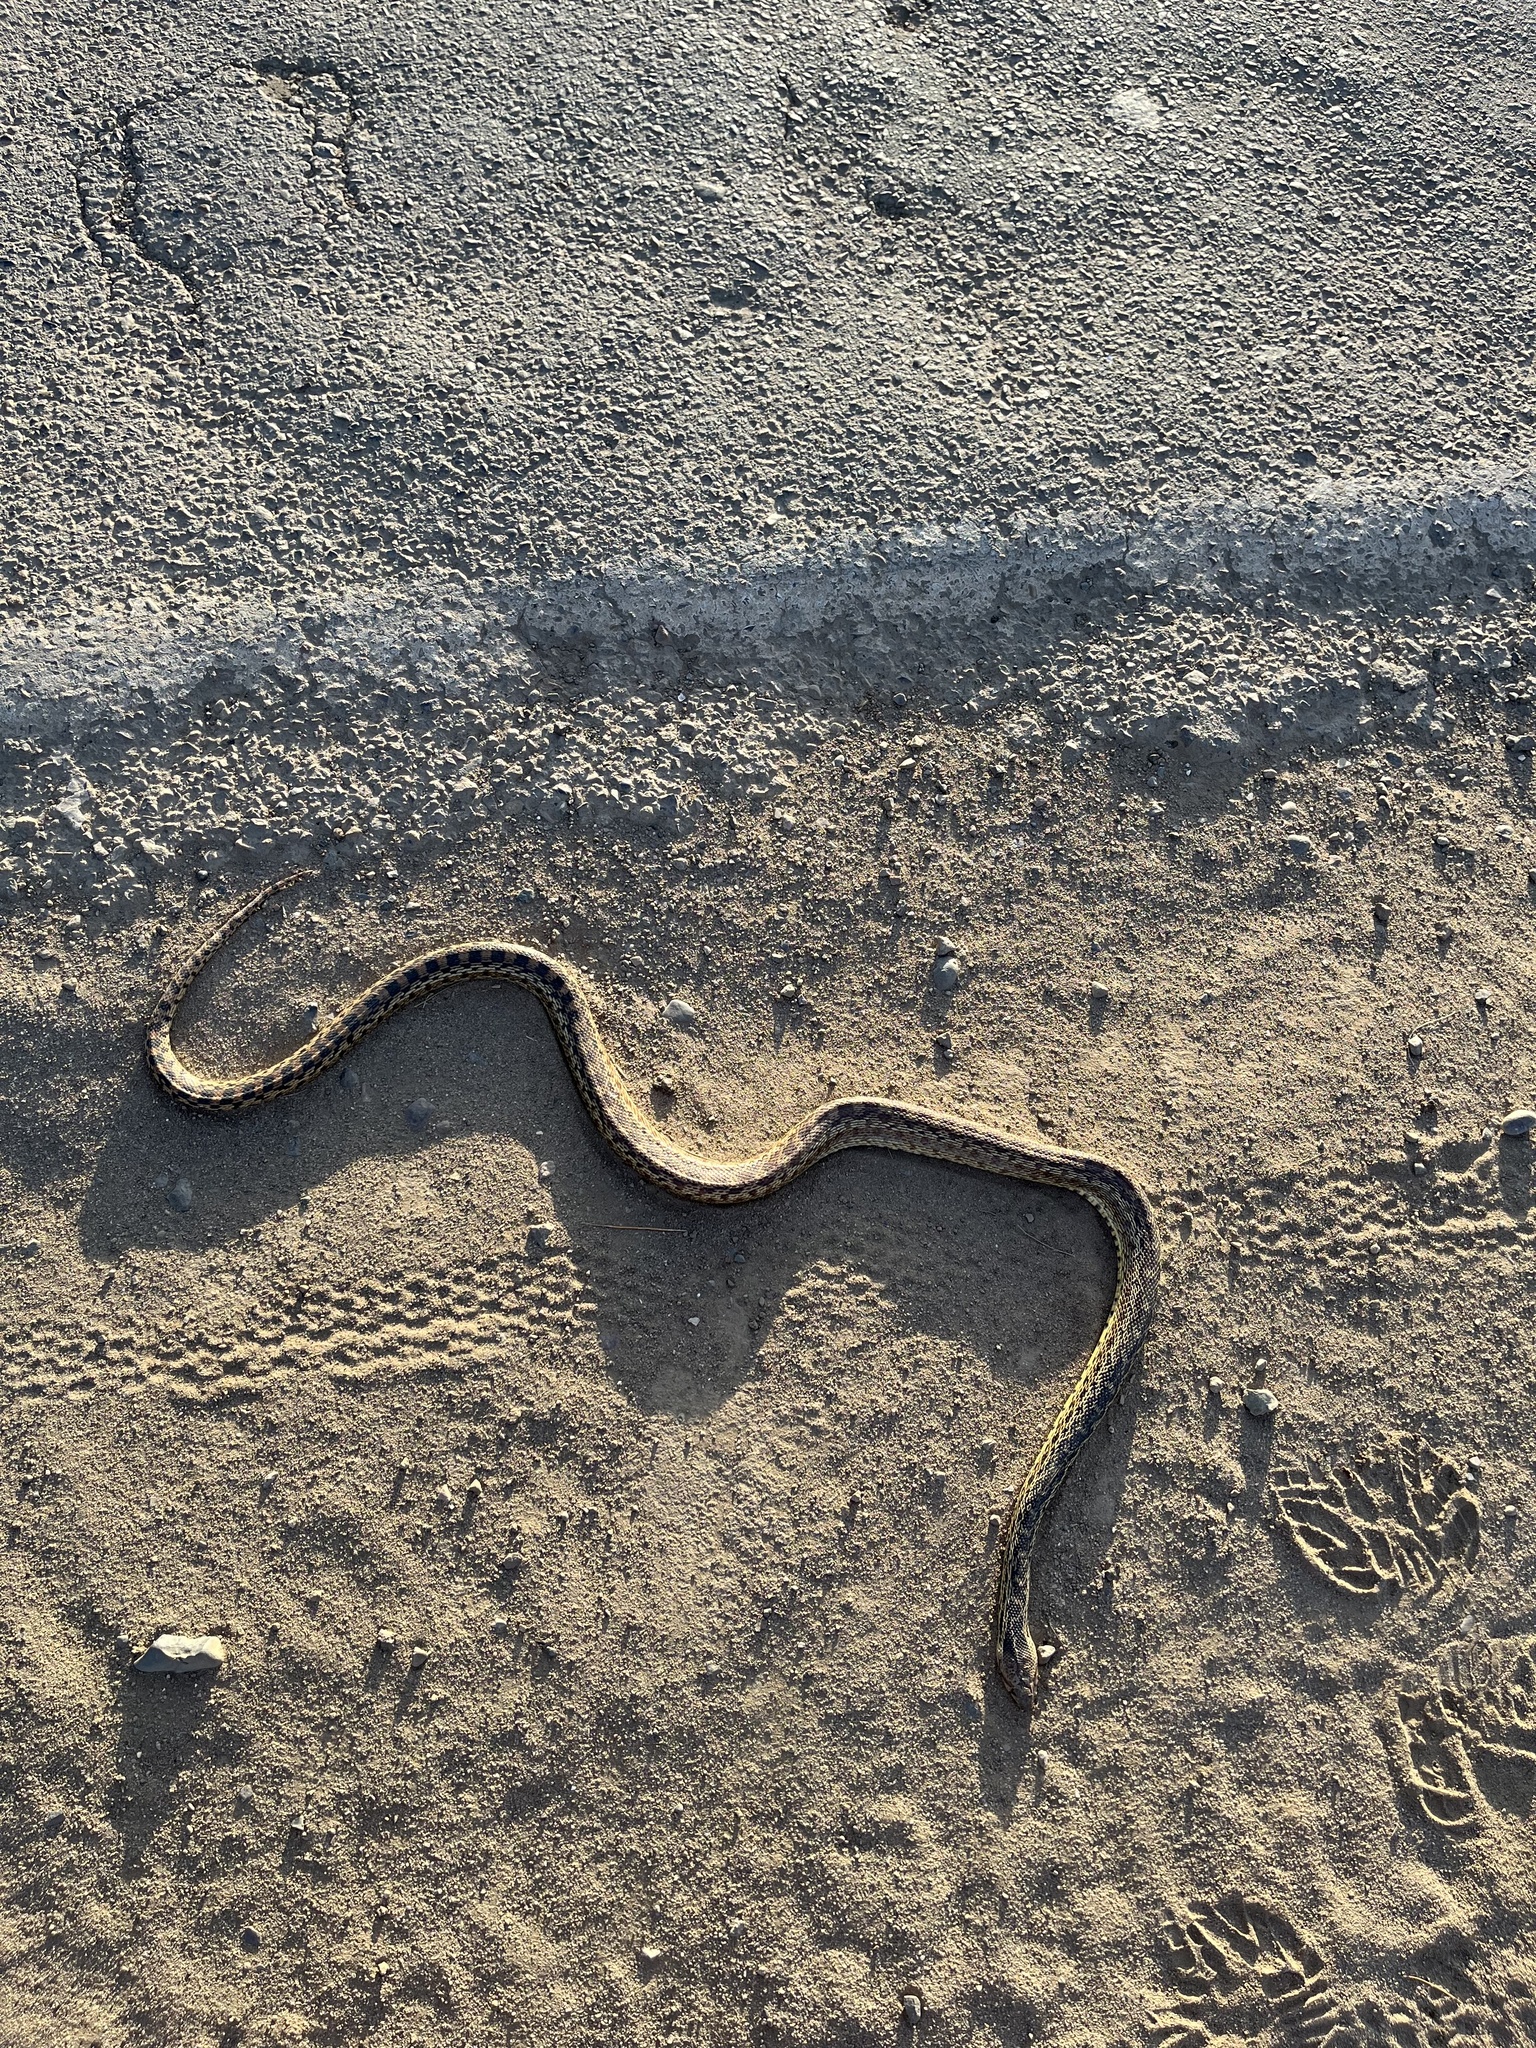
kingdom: Animalia
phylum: Chordata
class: Squamata
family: Colubridae
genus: Pituophis
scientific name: Pituophis catenifer
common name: Gopher snake
